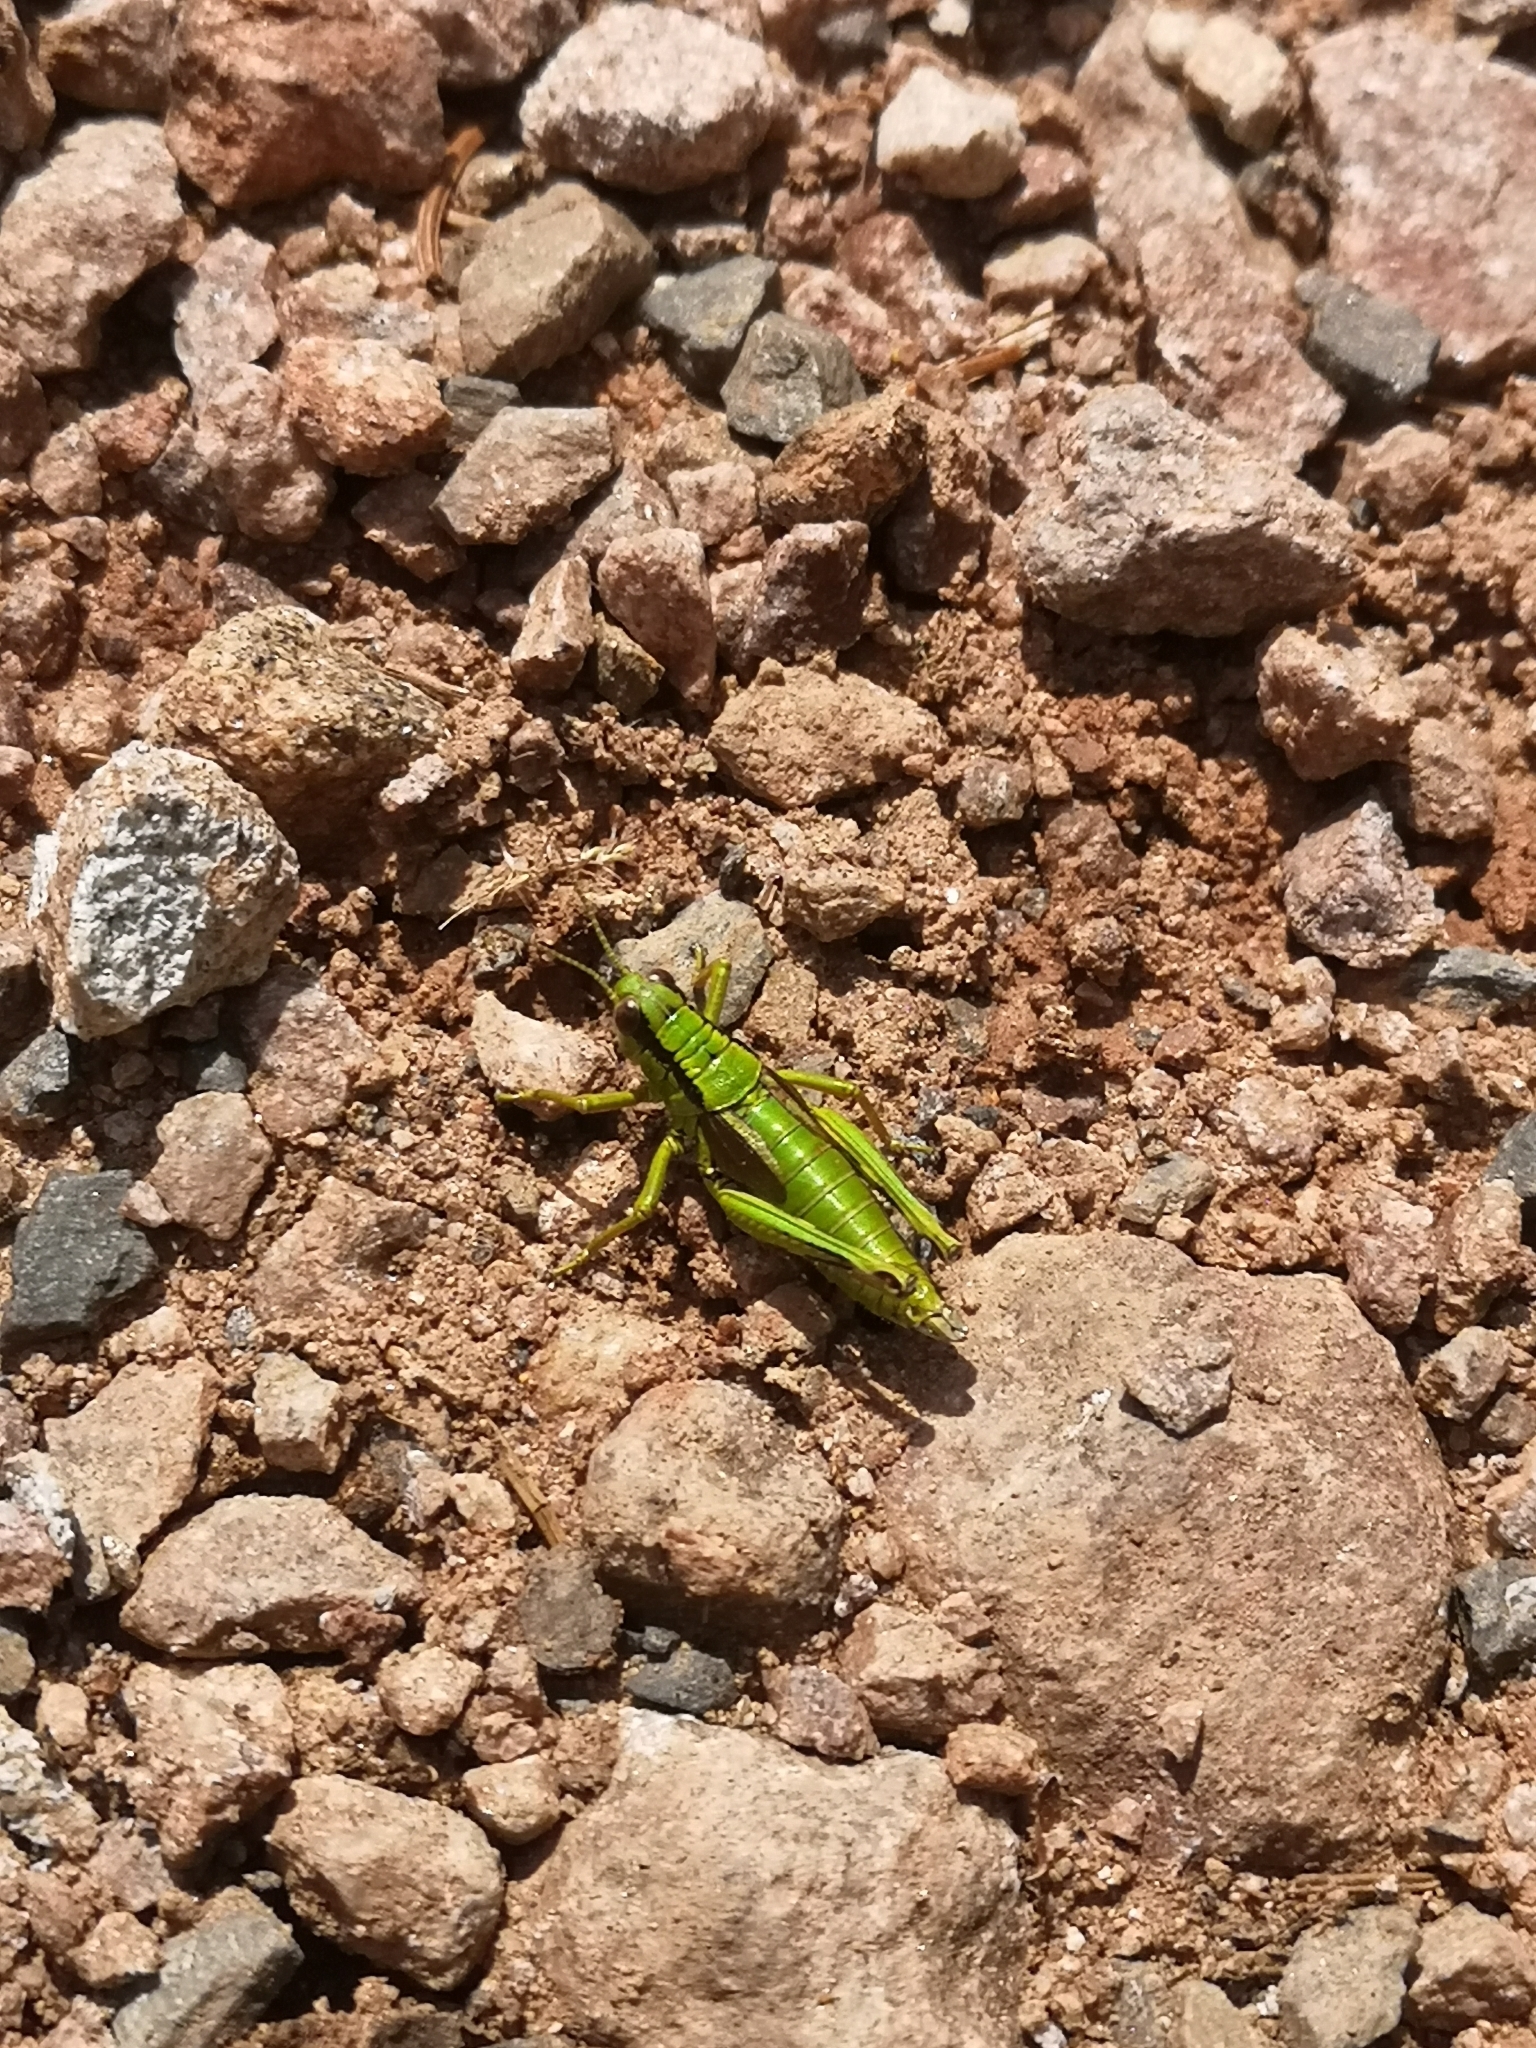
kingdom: Animalia
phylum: Arthropoda
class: Insecta
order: Orthoptera
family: Acrididae
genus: Miramella
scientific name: Miramella alpina
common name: Green mountain grasshopper
